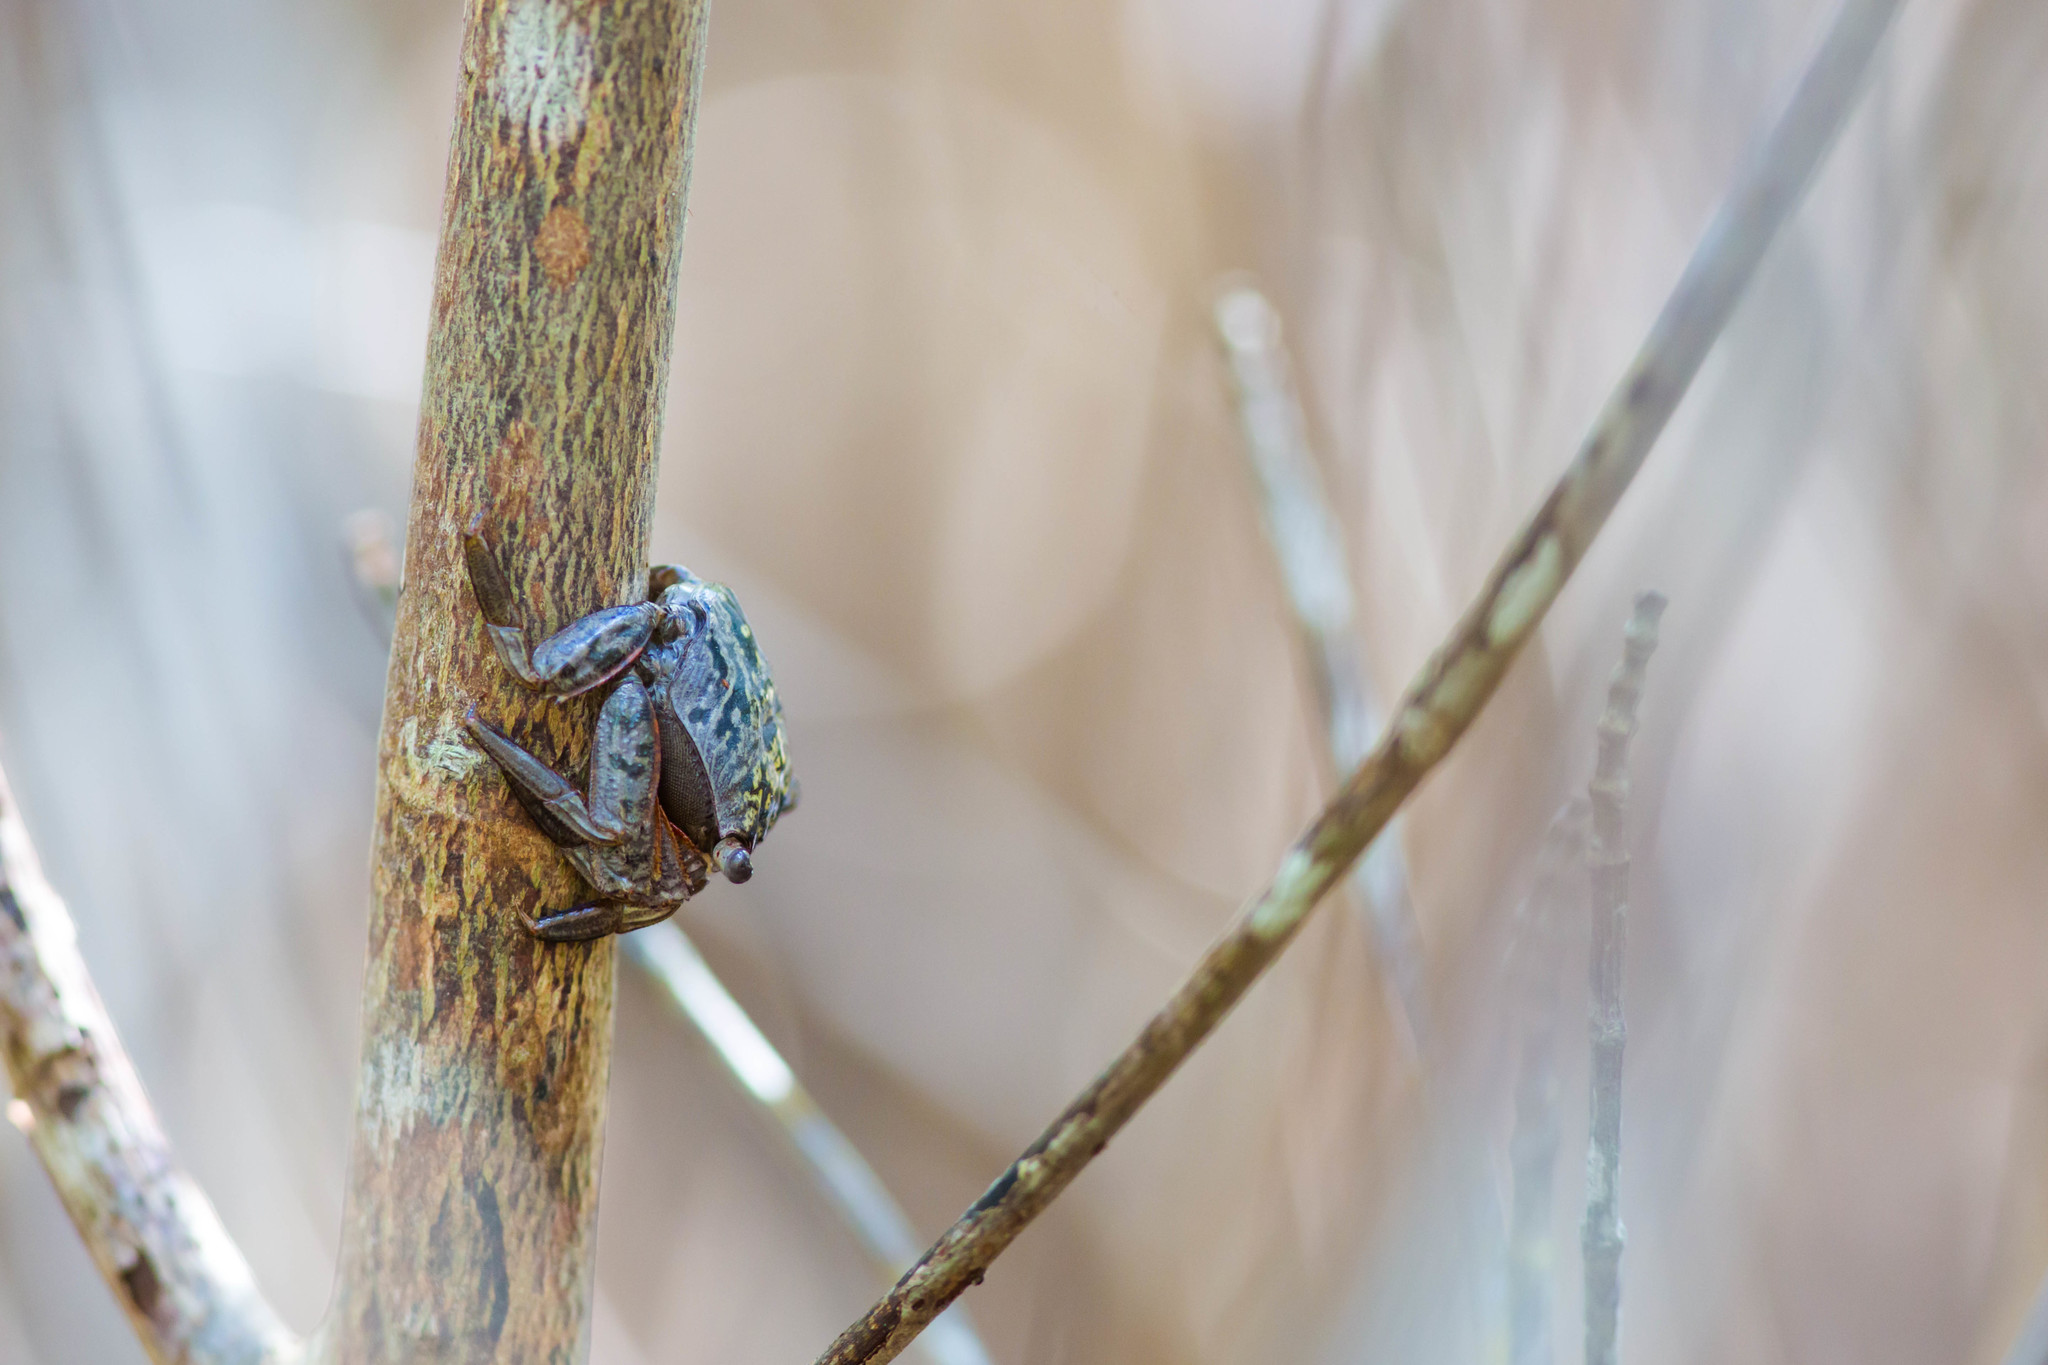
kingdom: Animalia
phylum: Arthropoda
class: Malacostraca
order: Decapoda
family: Sesarmidae
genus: Aratus
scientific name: Aratus pisonii
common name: Mangrove crab
